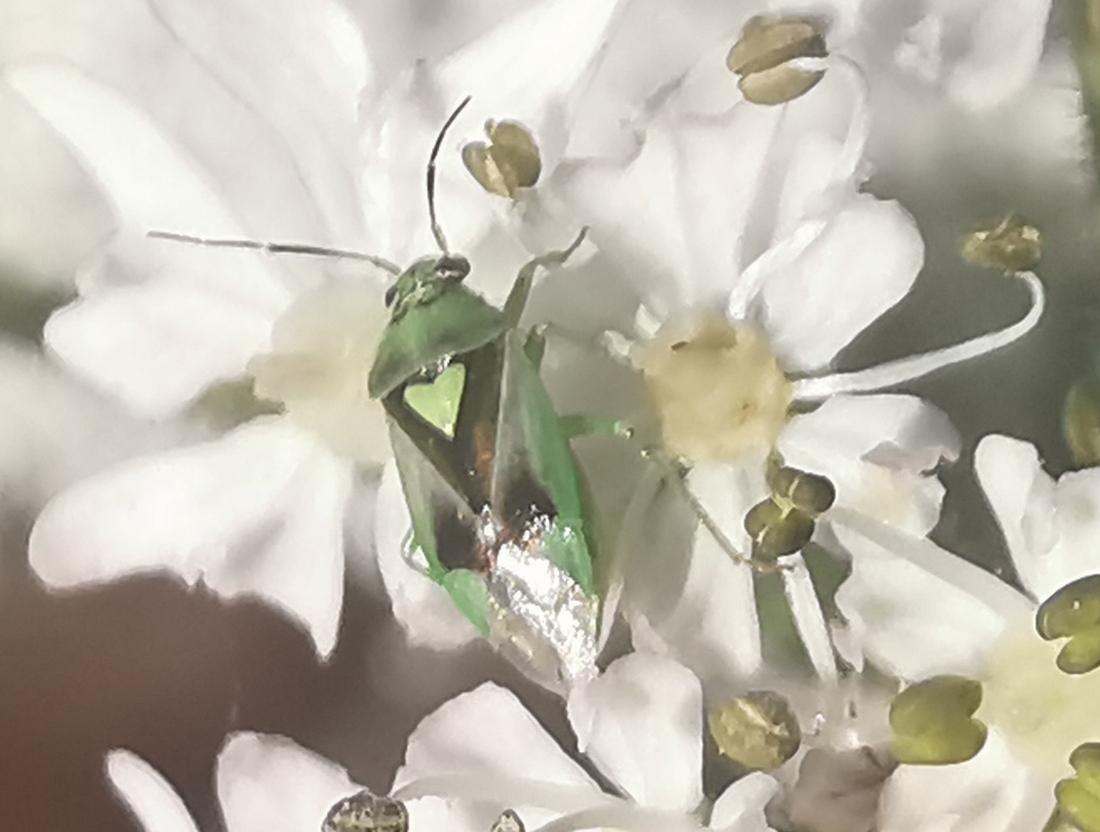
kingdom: Animalia
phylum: Arthropoda
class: Insecta
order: Hemiptera
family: Miridae
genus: Orthops
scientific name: Orthops campestris
